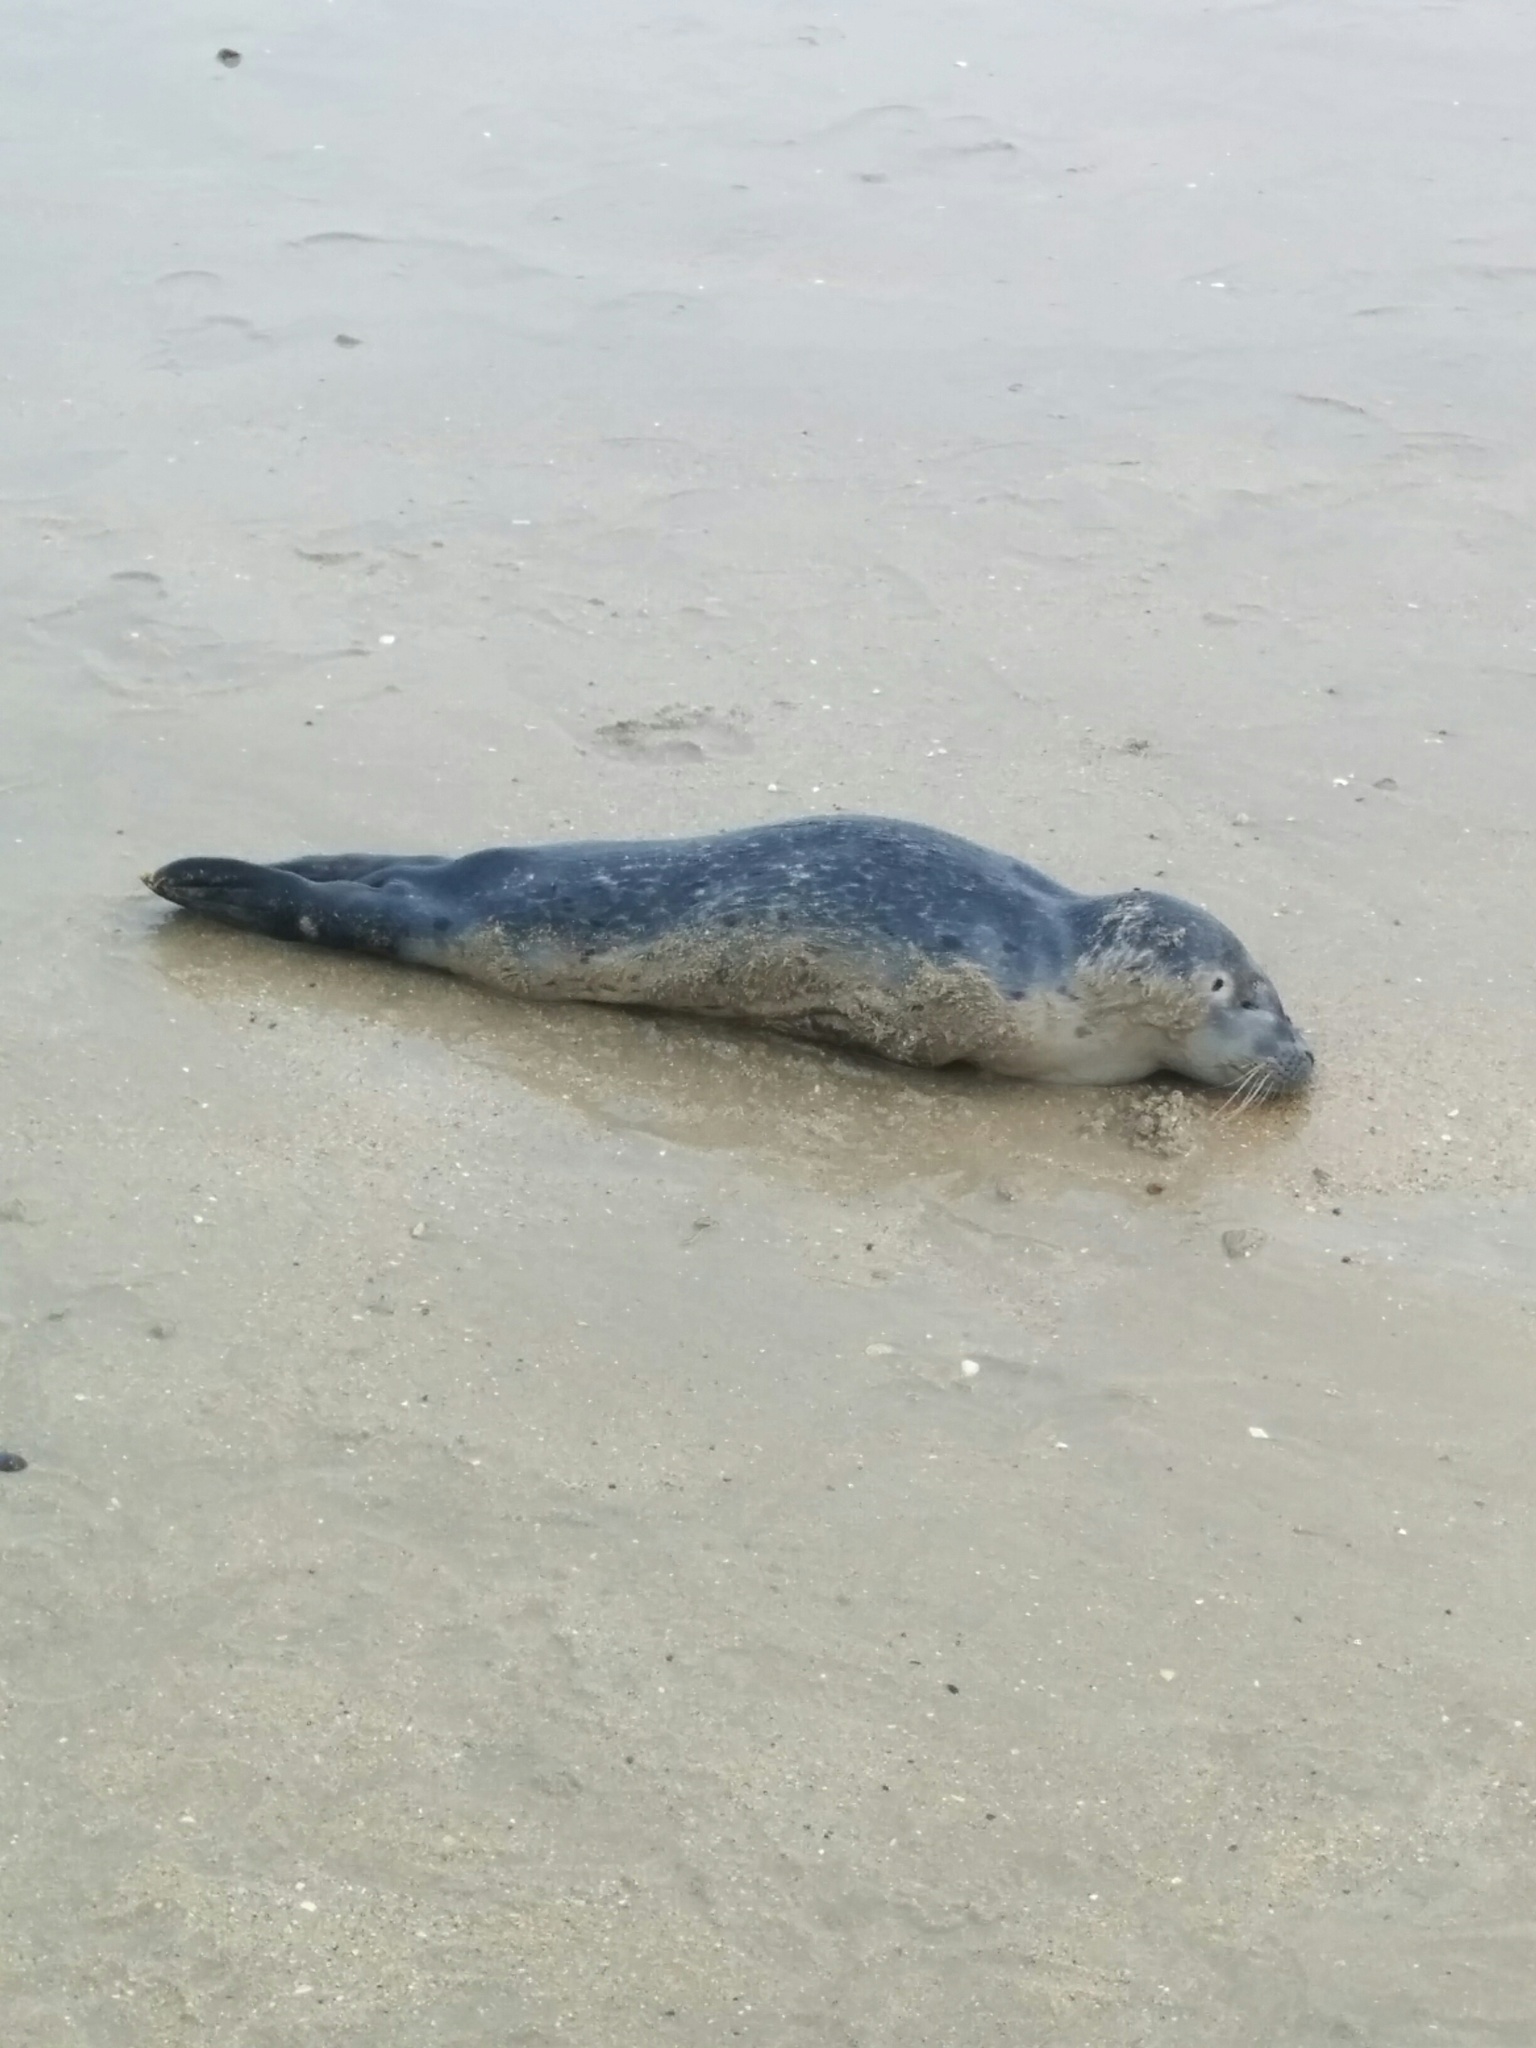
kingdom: Animalia
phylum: Chordata
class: Mammalia
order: Carnivora
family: Phocidae
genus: Phoca
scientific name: Phoca vitulina
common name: Harbor seal
